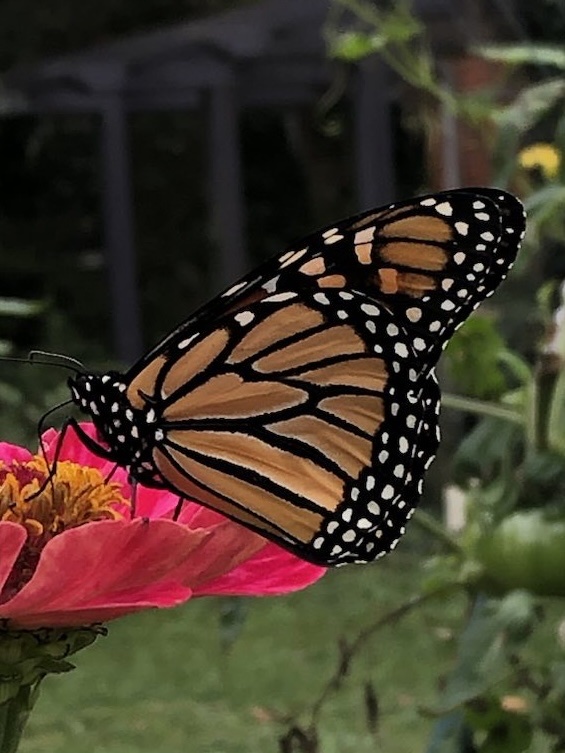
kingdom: Animalia
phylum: Arthropoda
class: Insecta
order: Lepidoptera
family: Nymphalidae
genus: Danaus
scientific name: Danaus plexippus
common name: Monarch
